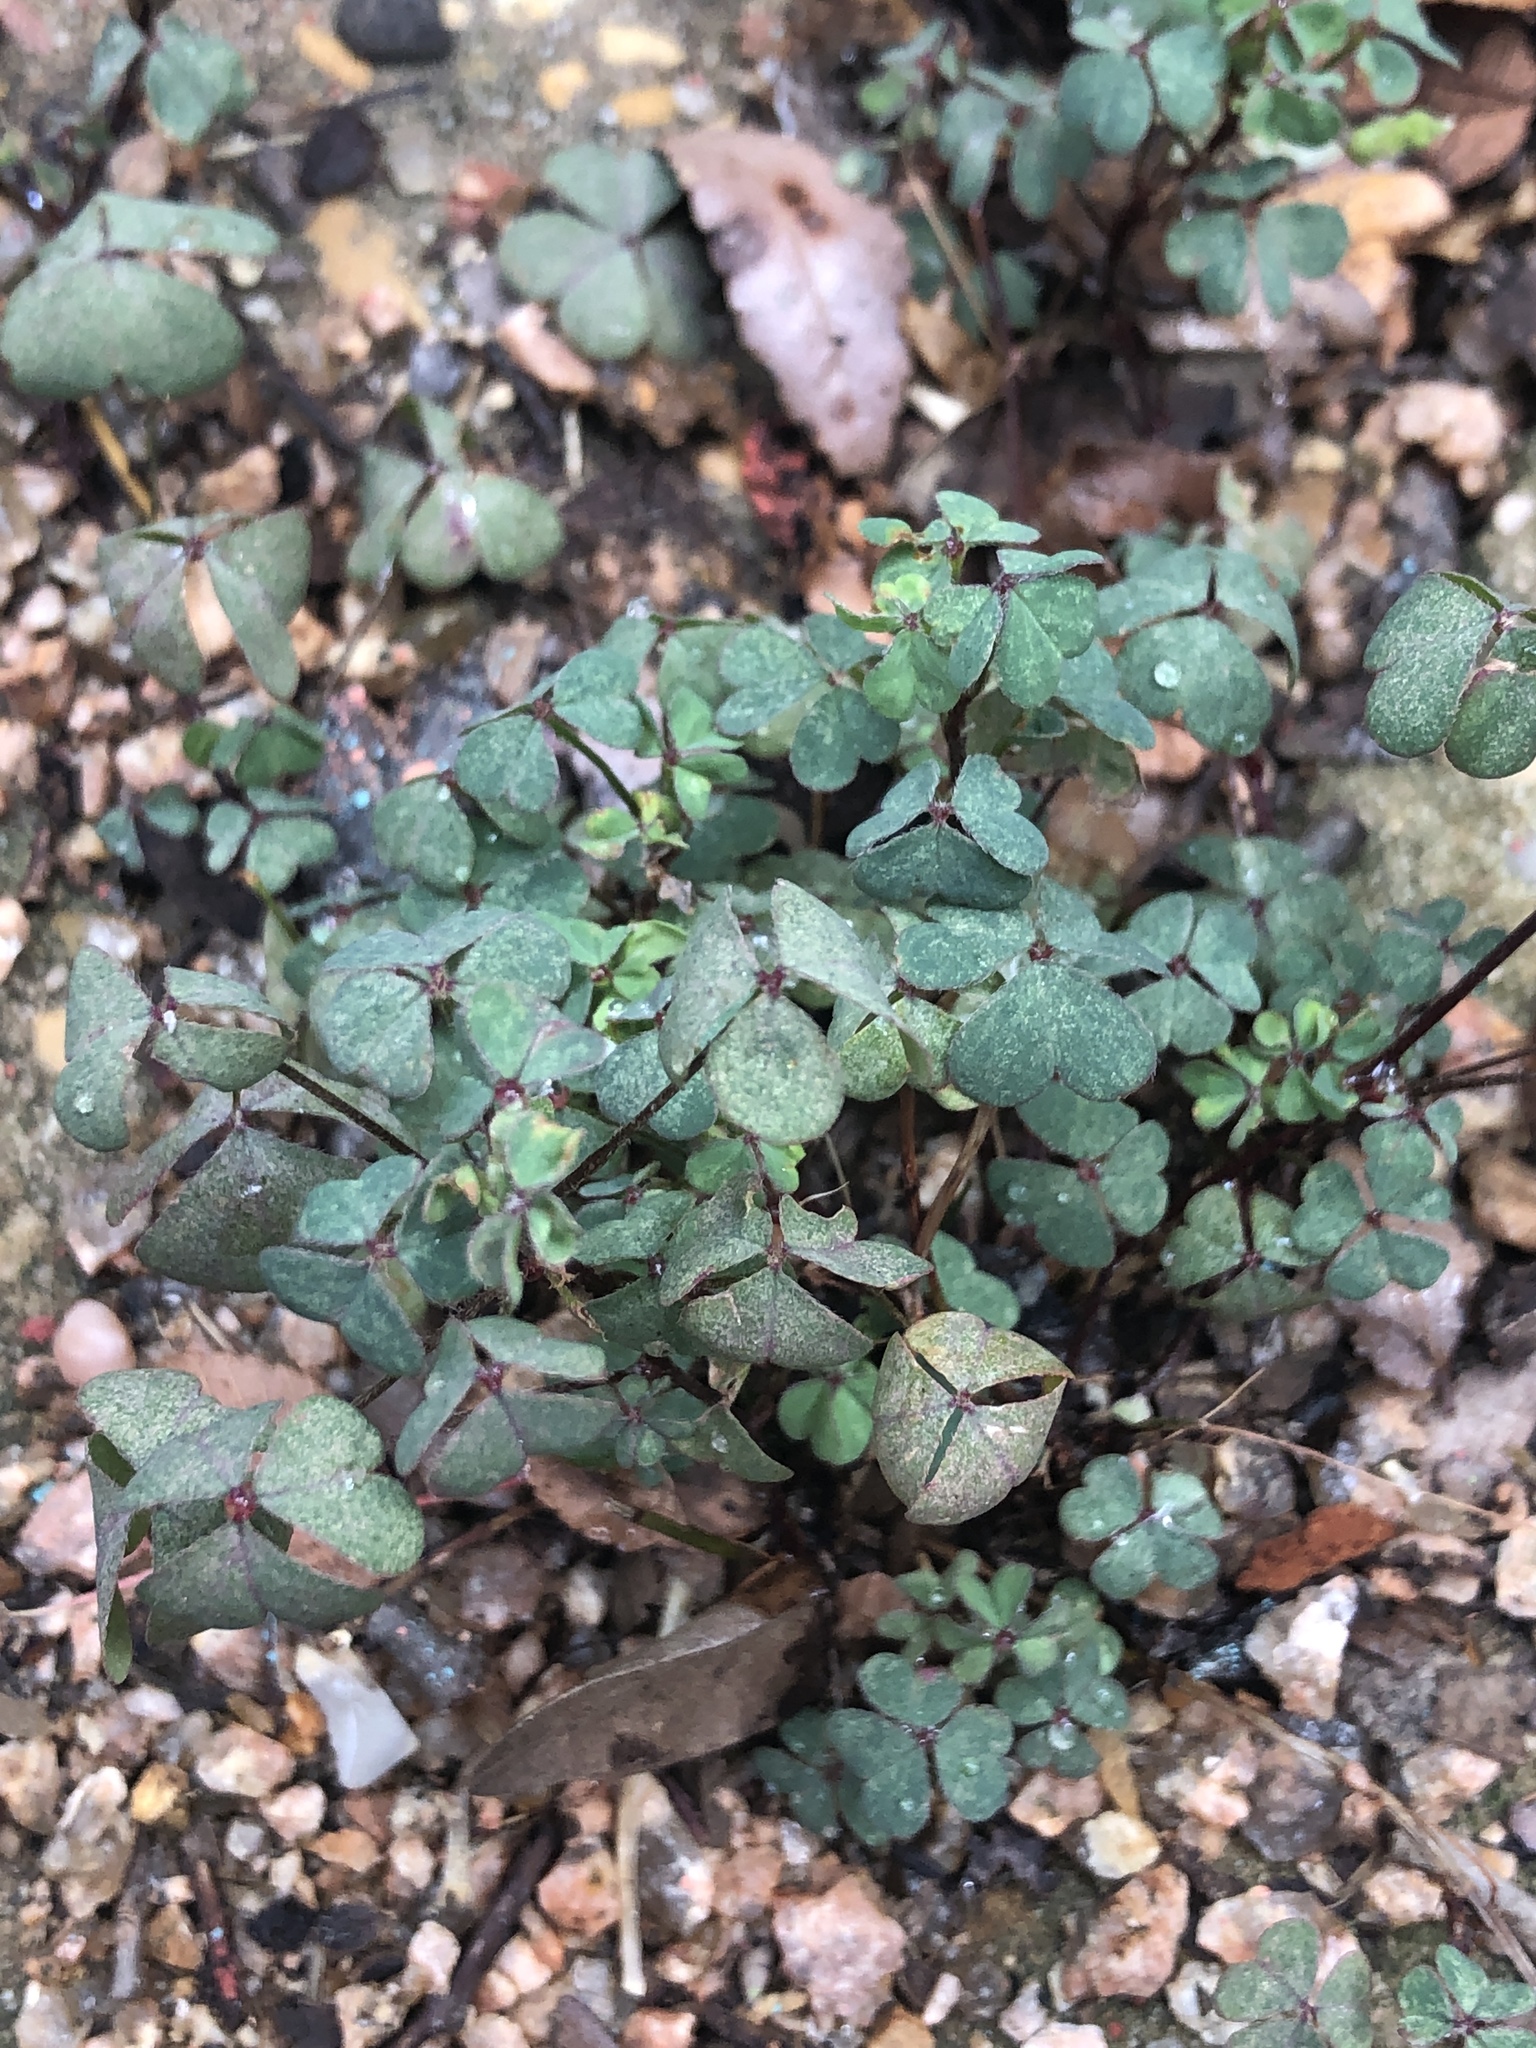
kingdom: Plantae
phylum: Tracheophyta
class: Magnoliopsida
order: Oxalidales
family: Oxalidaceae
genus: Oxalis
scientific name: Oxalis
